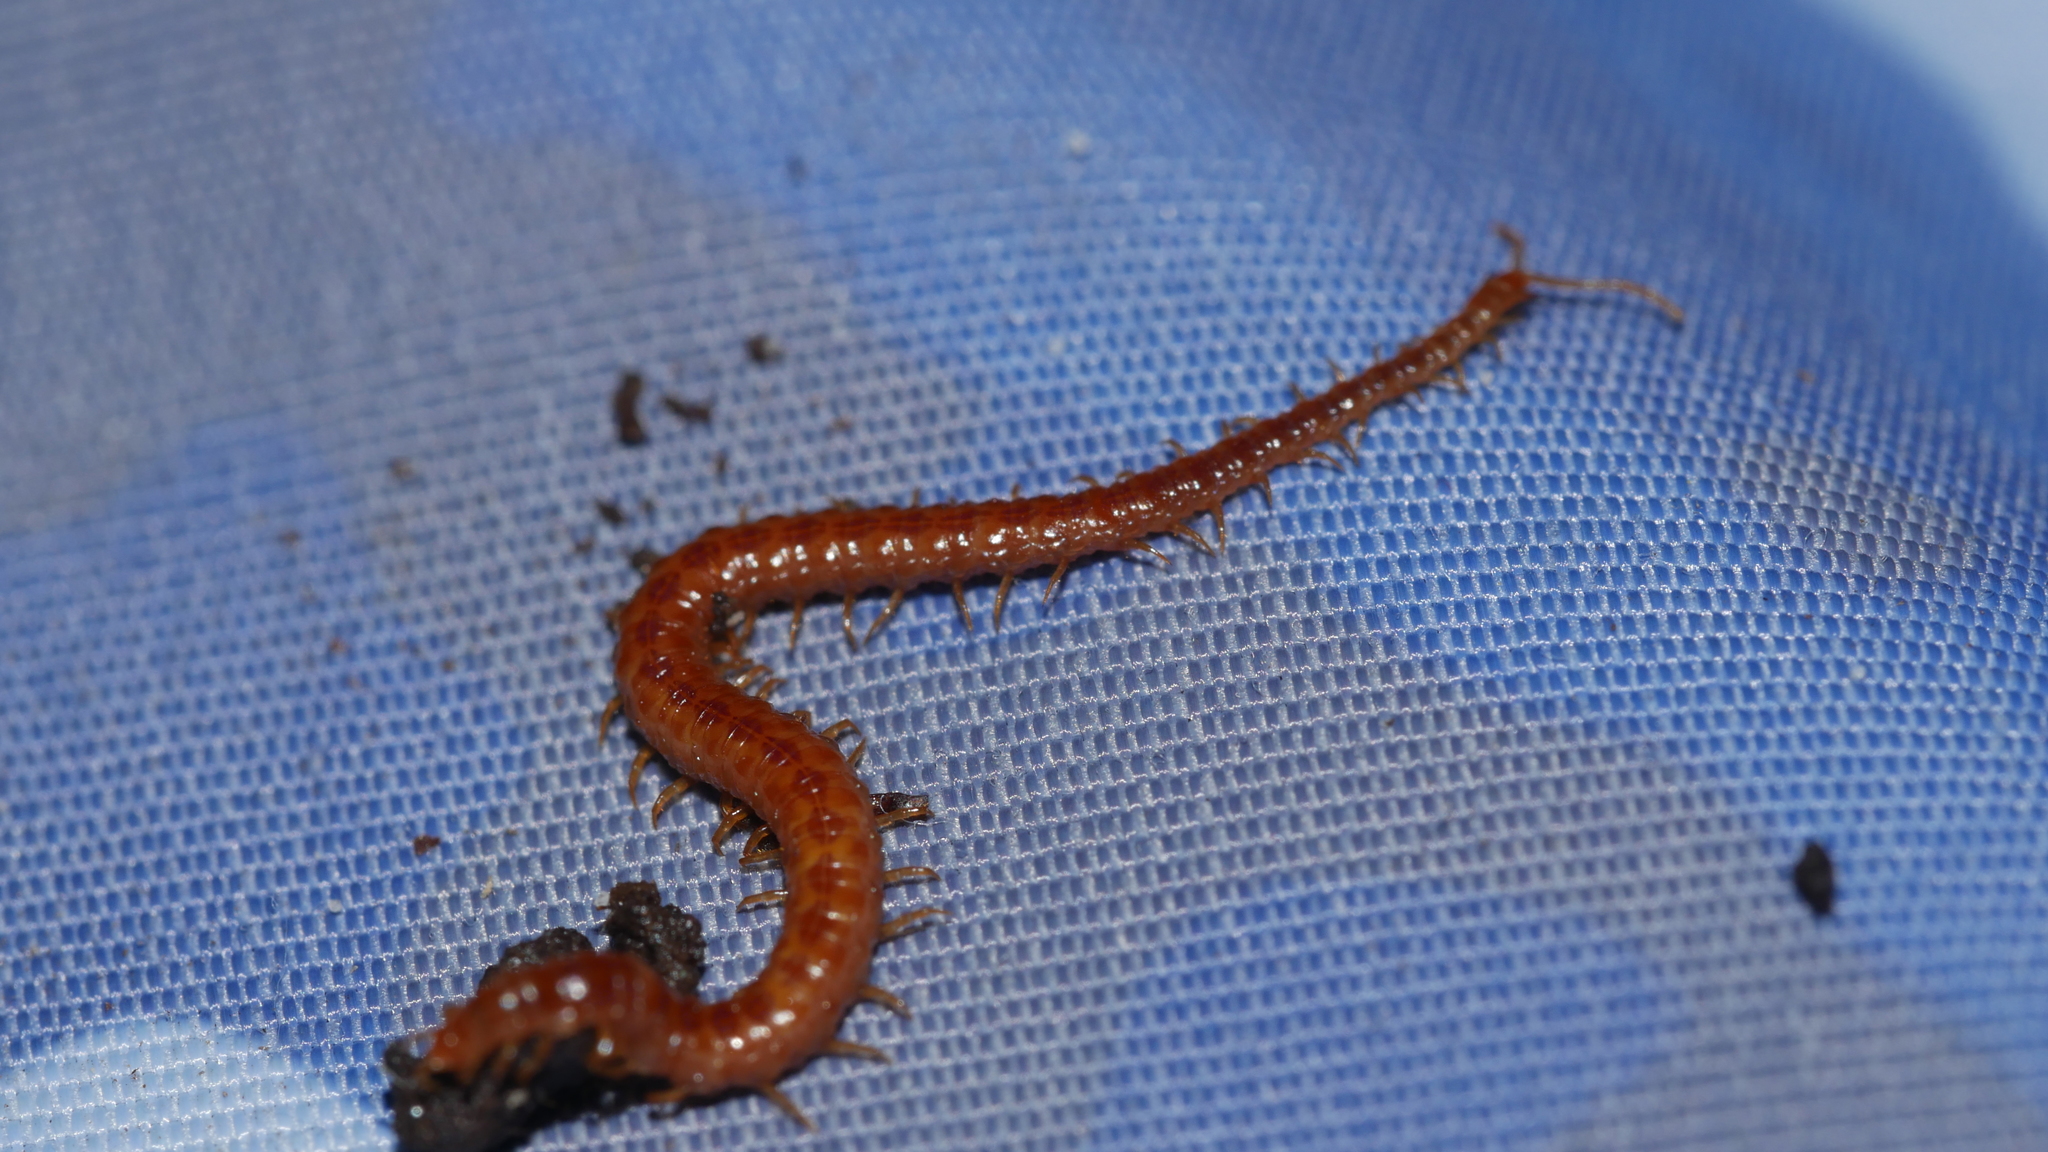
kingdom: Animalia
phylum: Arthropoda
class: Chilopoda
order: Geophilomorpha
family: Linotaeniidae
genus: Strigamia
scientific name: Strigamia branneri
